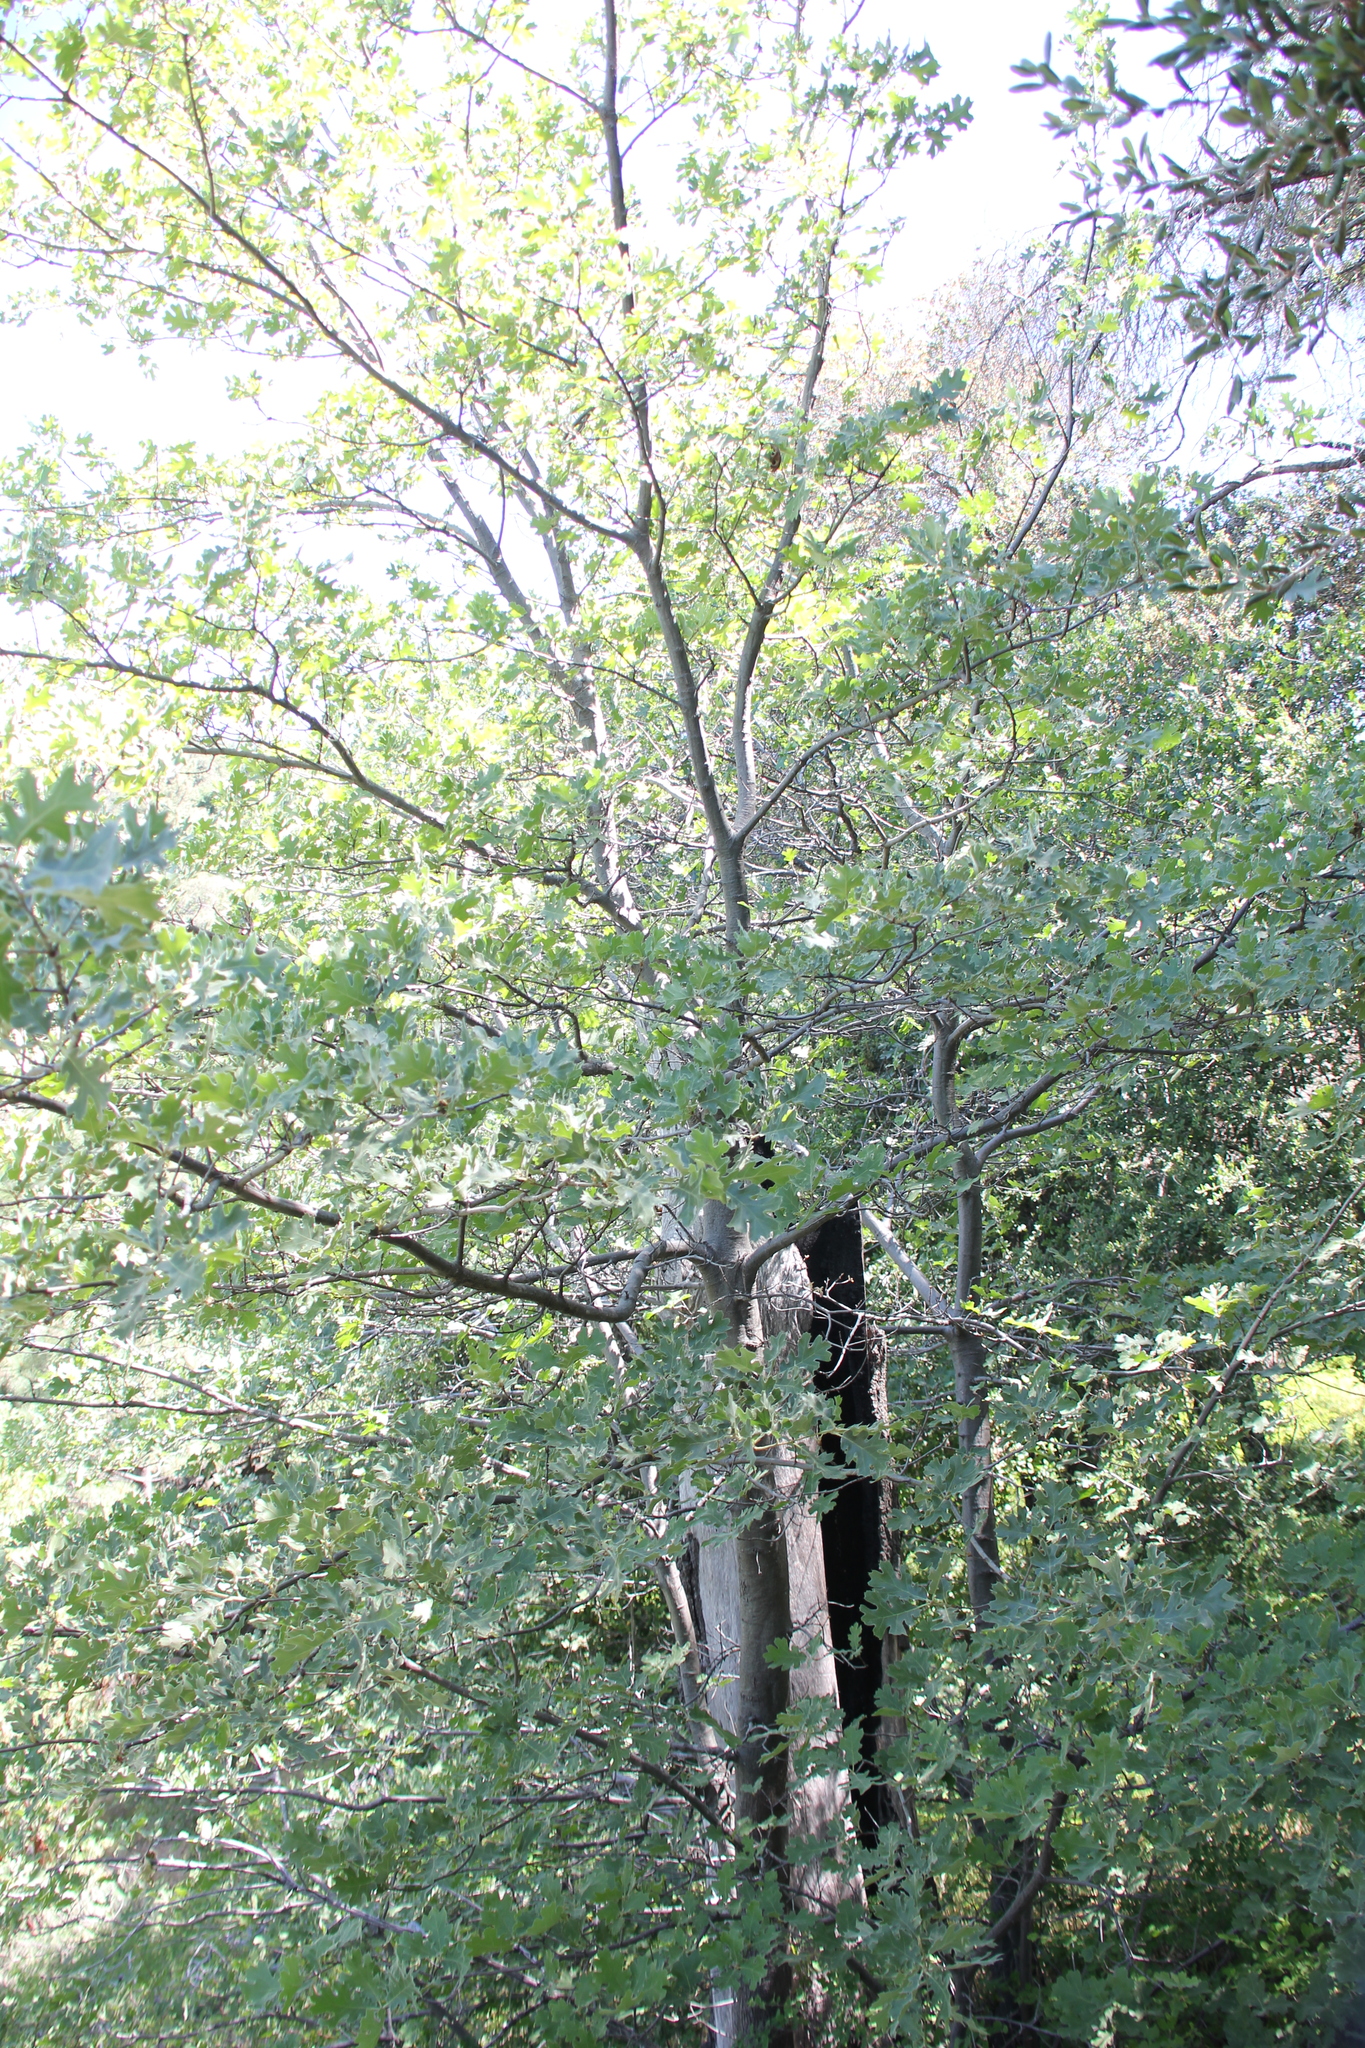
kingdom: Plantae
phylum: Tracheophyta
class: Magnoliopsida
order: Fagales
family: Fagaceae
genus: Quercus
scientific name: Quercus kelloggii
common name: California black oak
